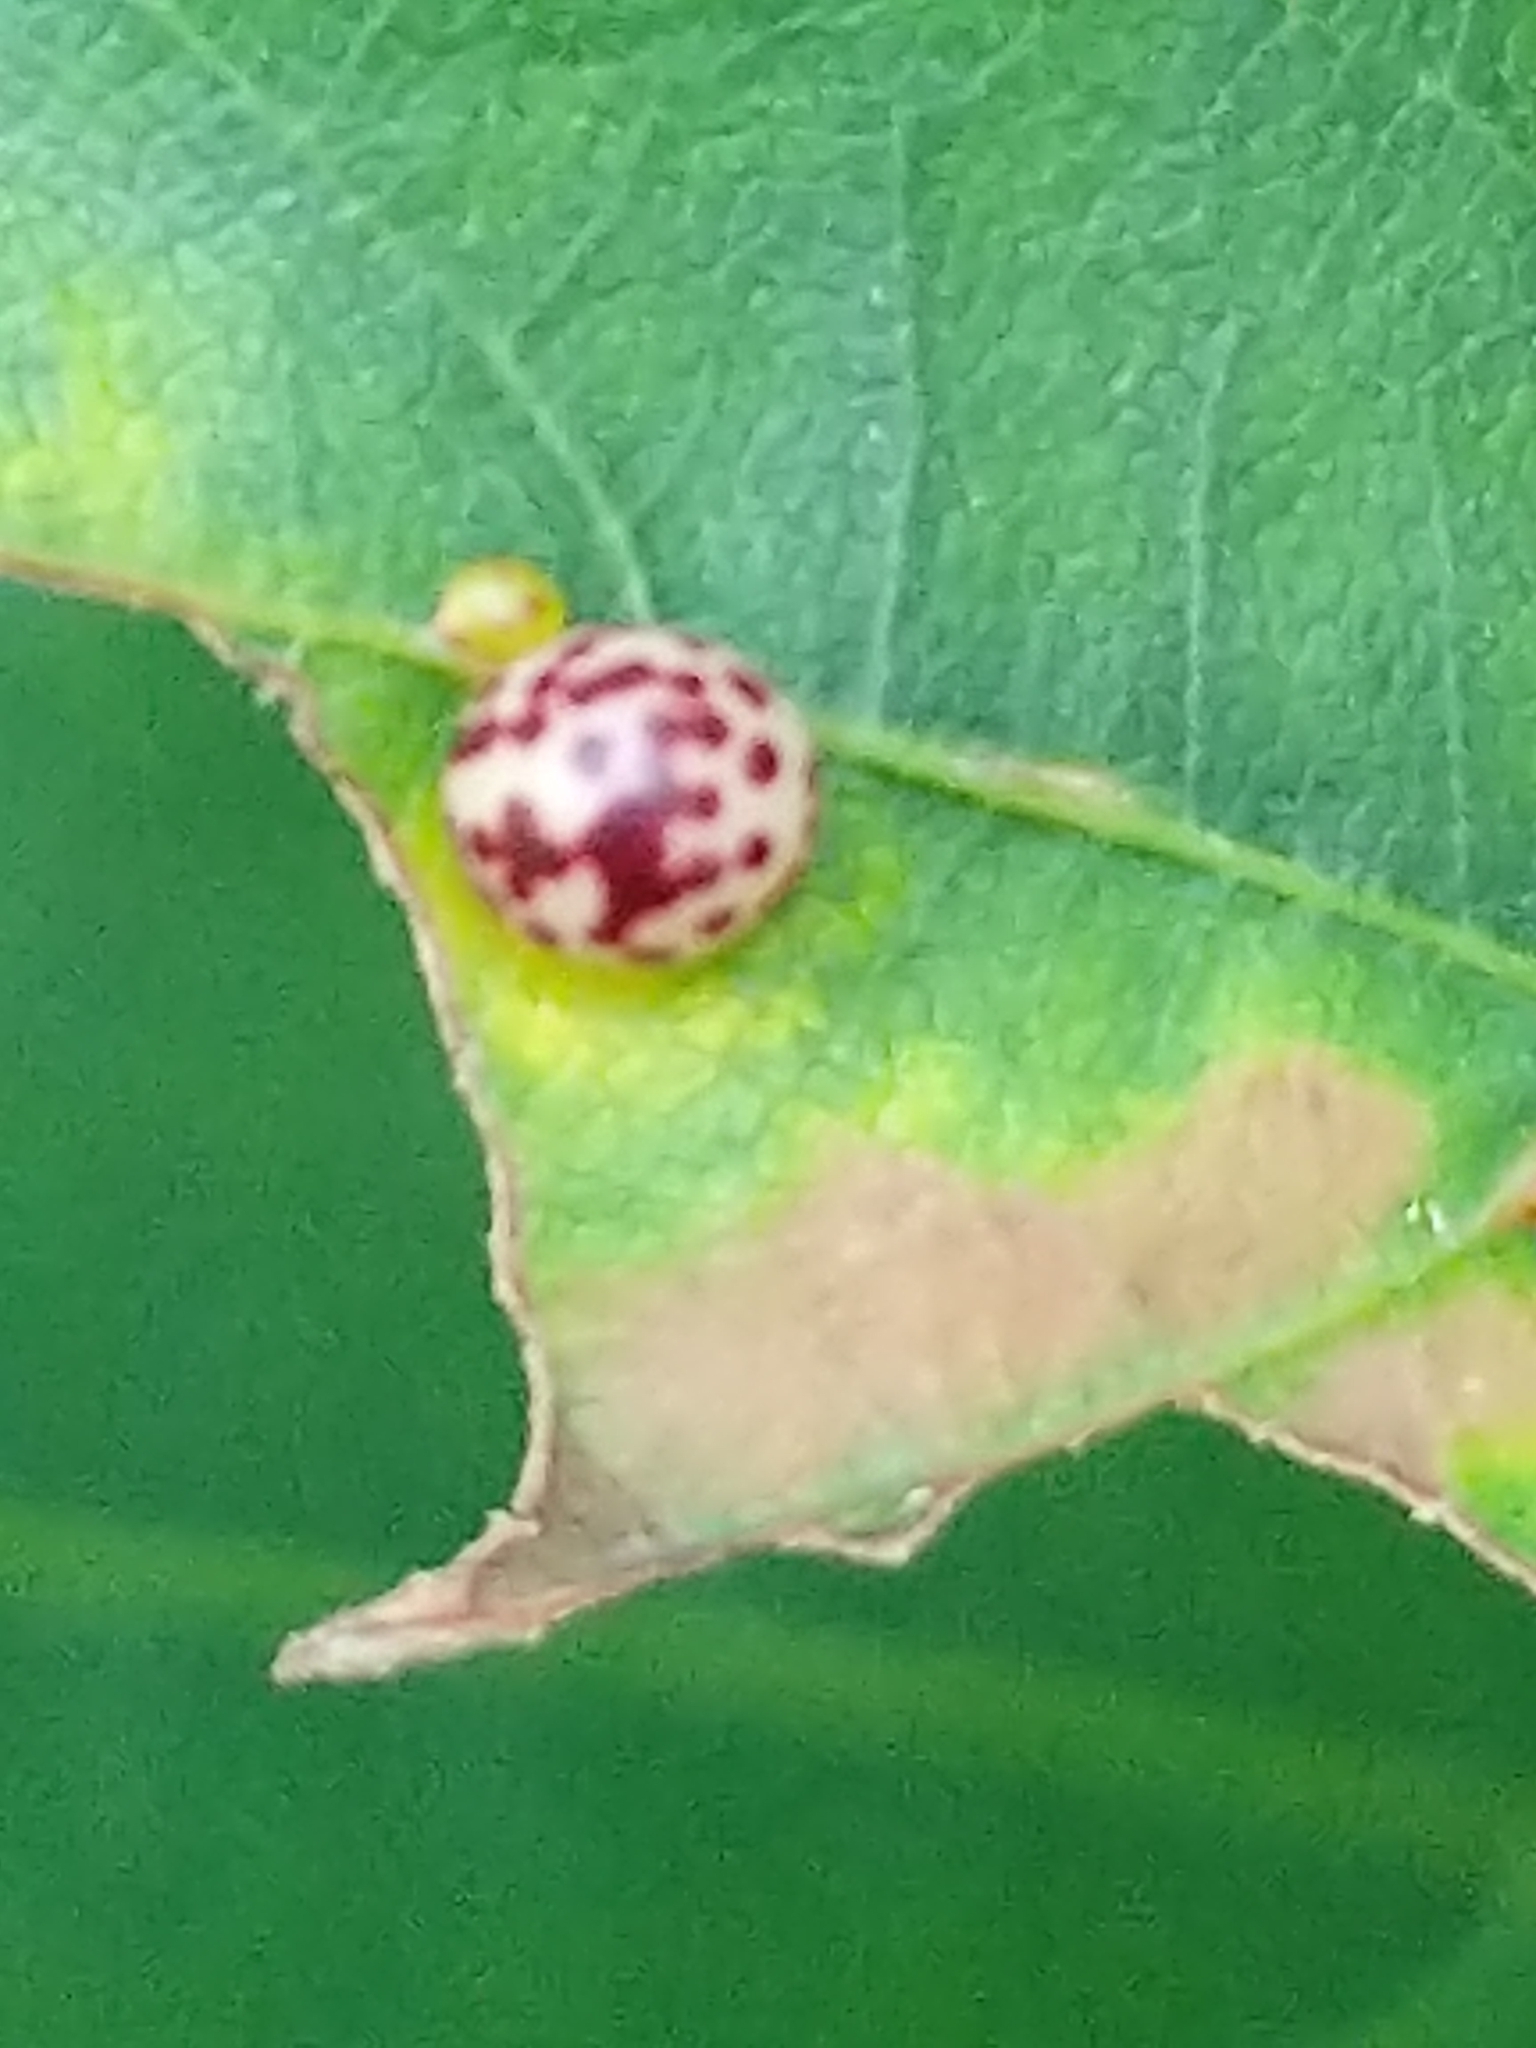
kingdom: Animalia
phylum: Arthropoda
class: Insecta
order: Hymenoptera
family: Cynipidae
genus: Zopheroteras
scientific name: Zopheroteras
